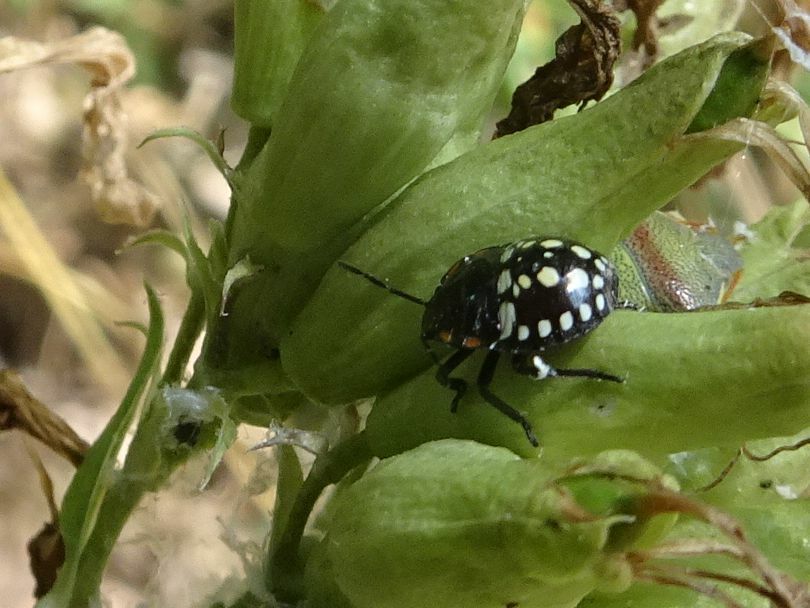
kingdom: Animalia
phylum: Arthropoda
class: Insecta
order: Hemiptera
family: Pentatomidae
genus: Nezara
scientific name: Nezara viridula
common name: Southern green stink bug
